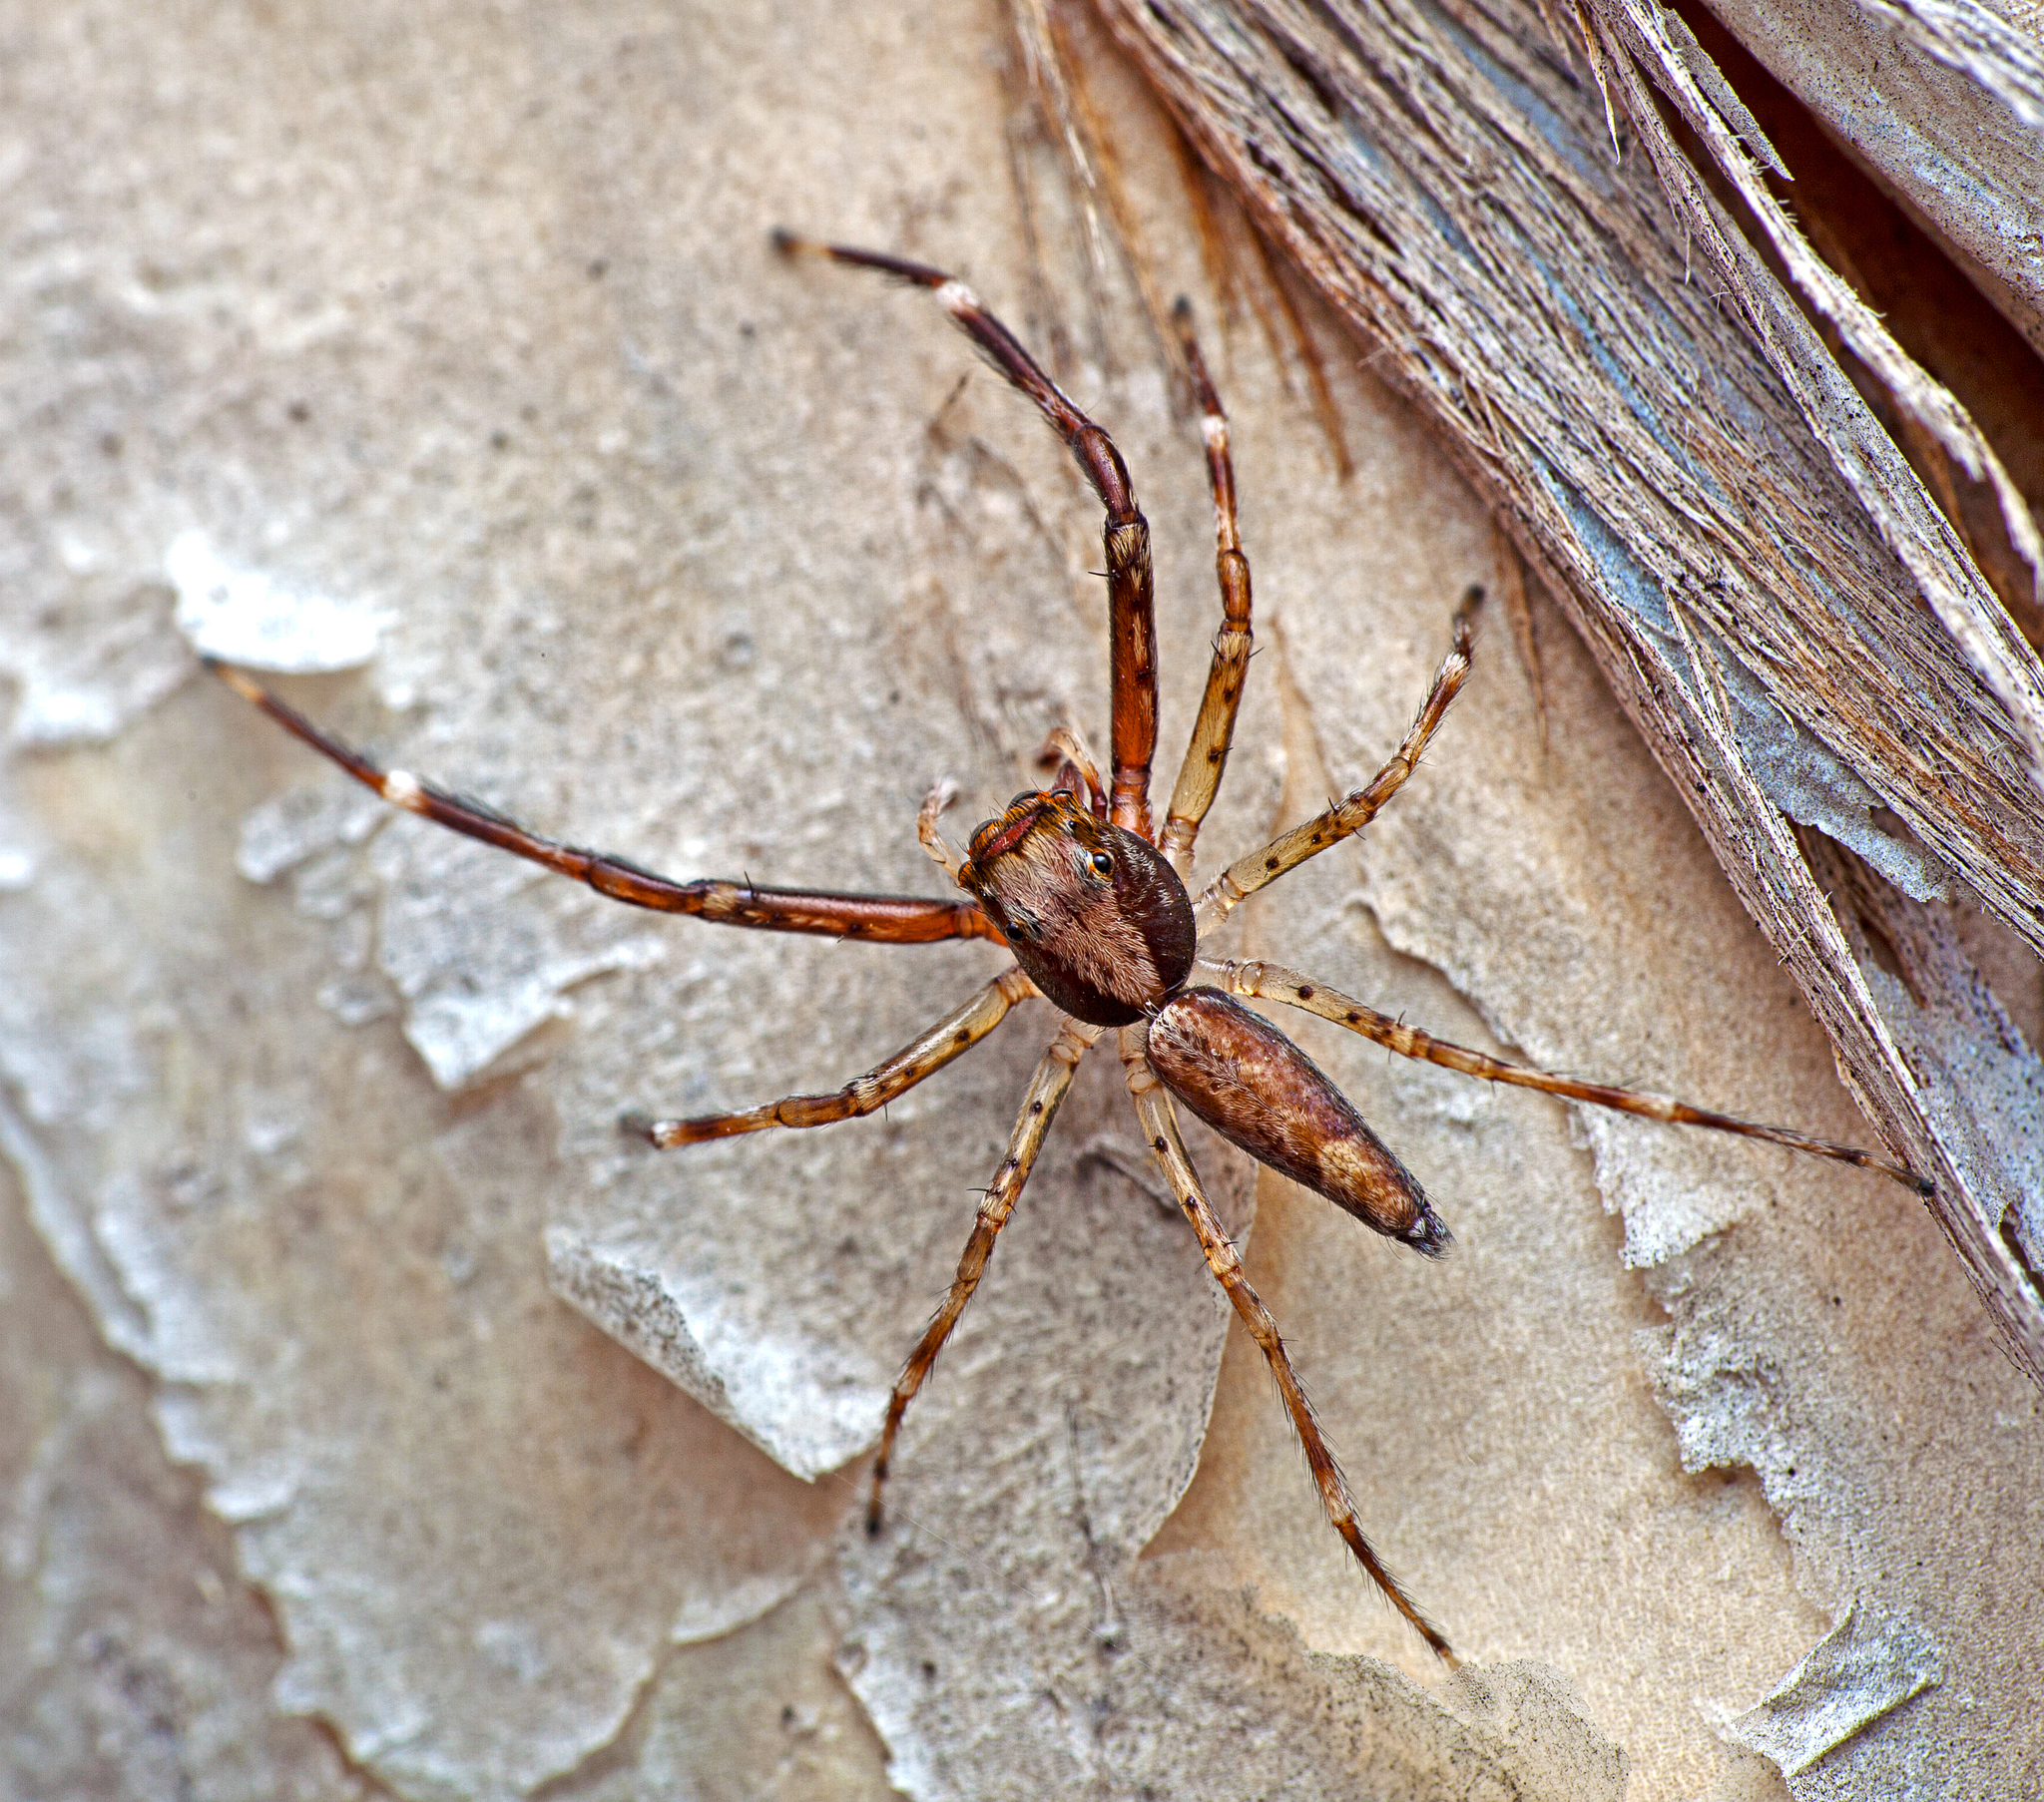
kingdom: Animalia
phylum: Arthropoda
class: Arachnida
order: Araneae
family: Salticidae
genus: Helpis
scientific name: Helpis minitabunda
